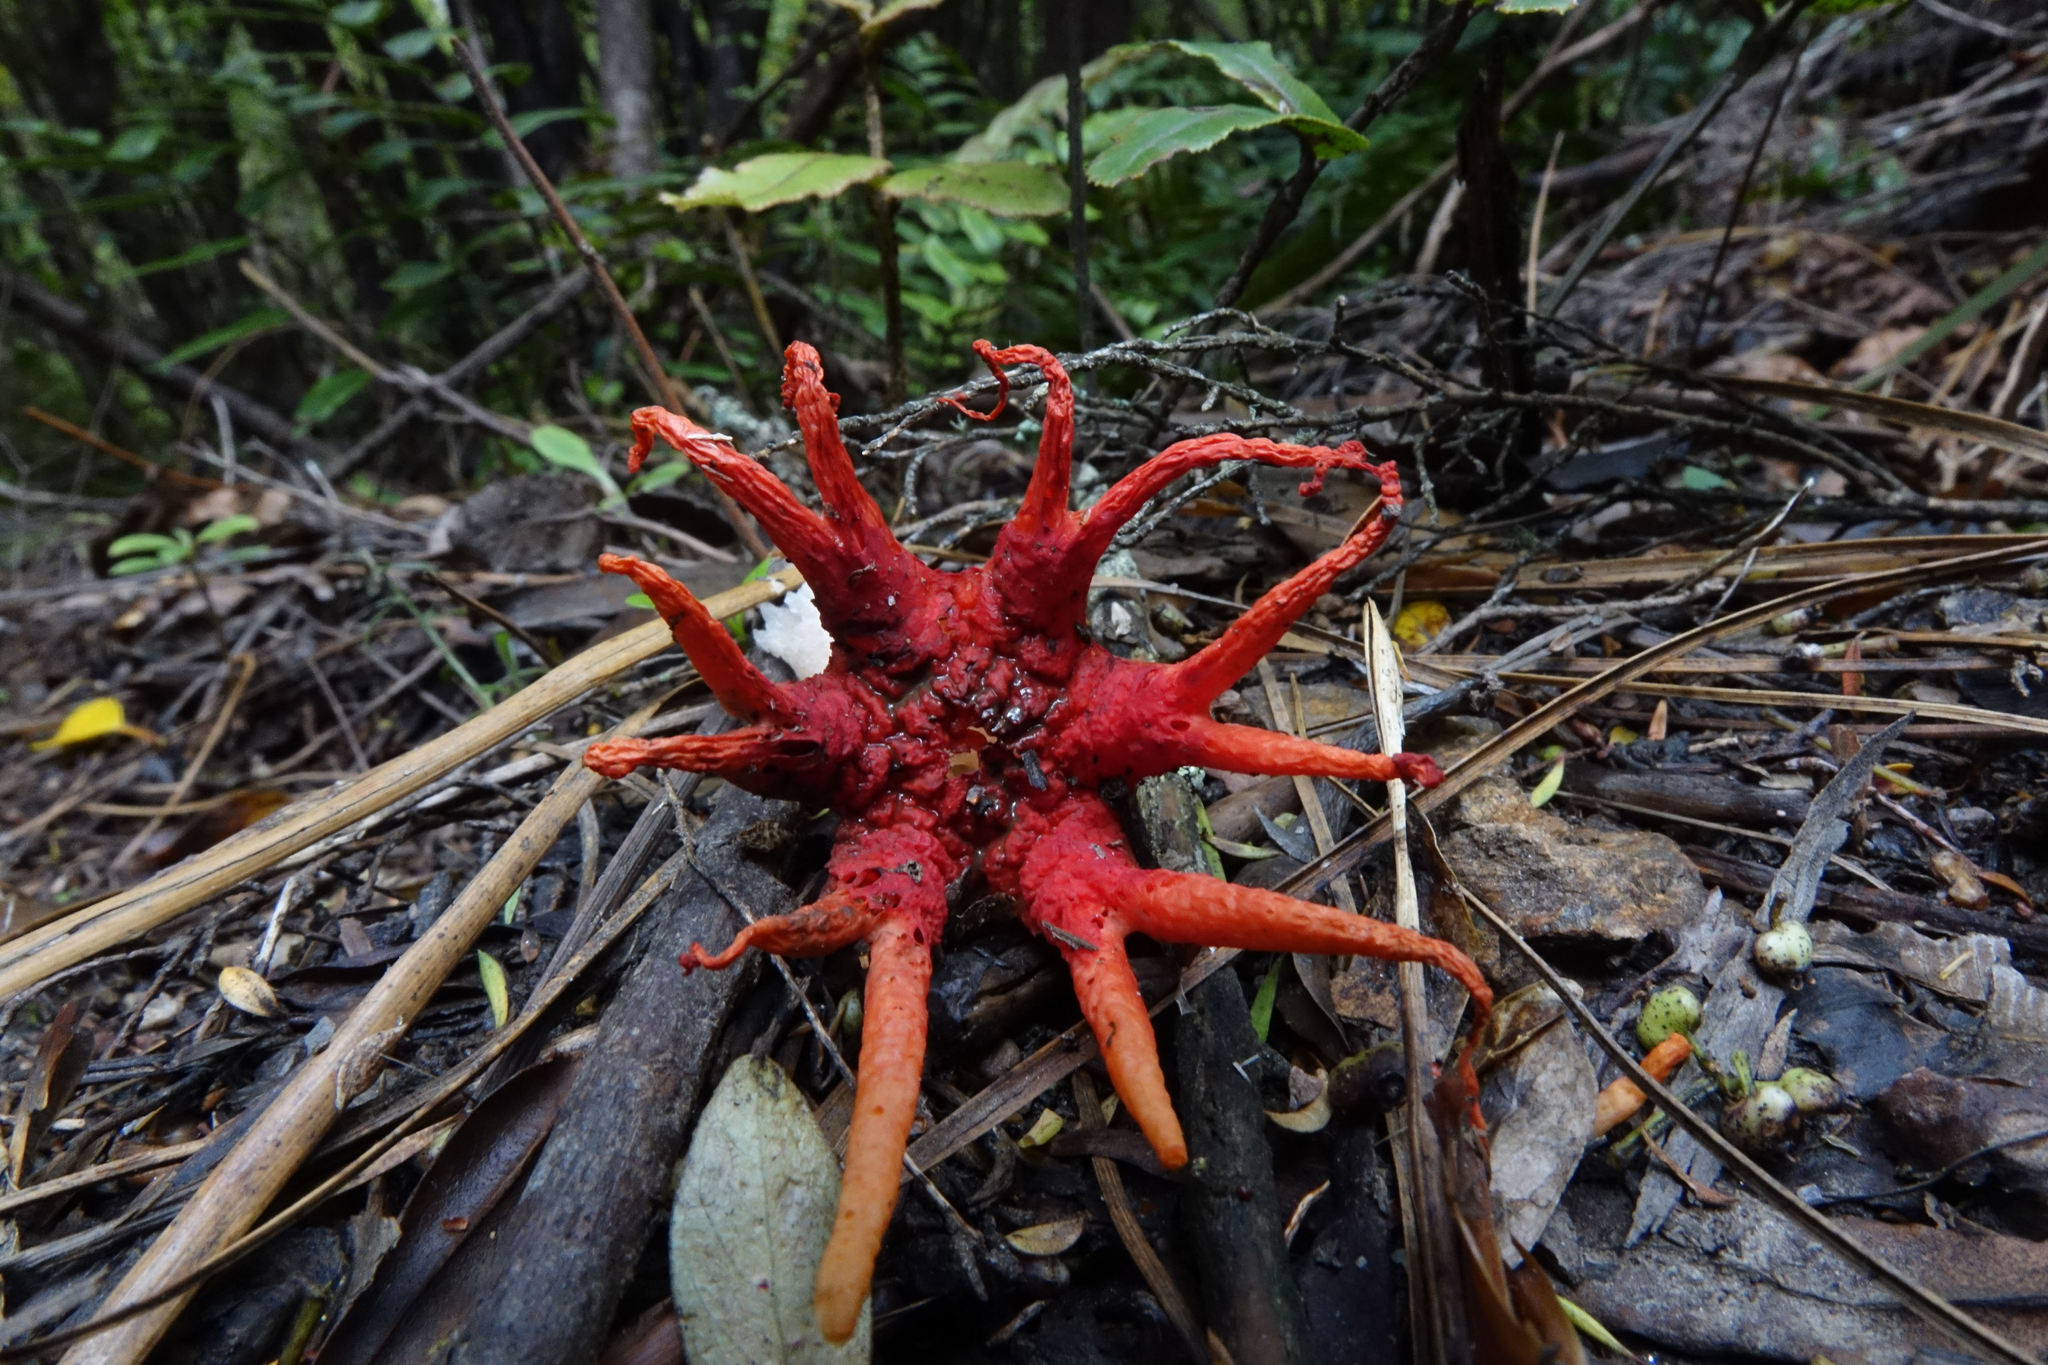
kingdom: Fungi
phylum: Basidiomycota
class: Agaricomycetes
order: Phallales
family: Phallaceae
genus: Aseroe
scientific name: Aseroe rubra
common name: Starfish fungus
